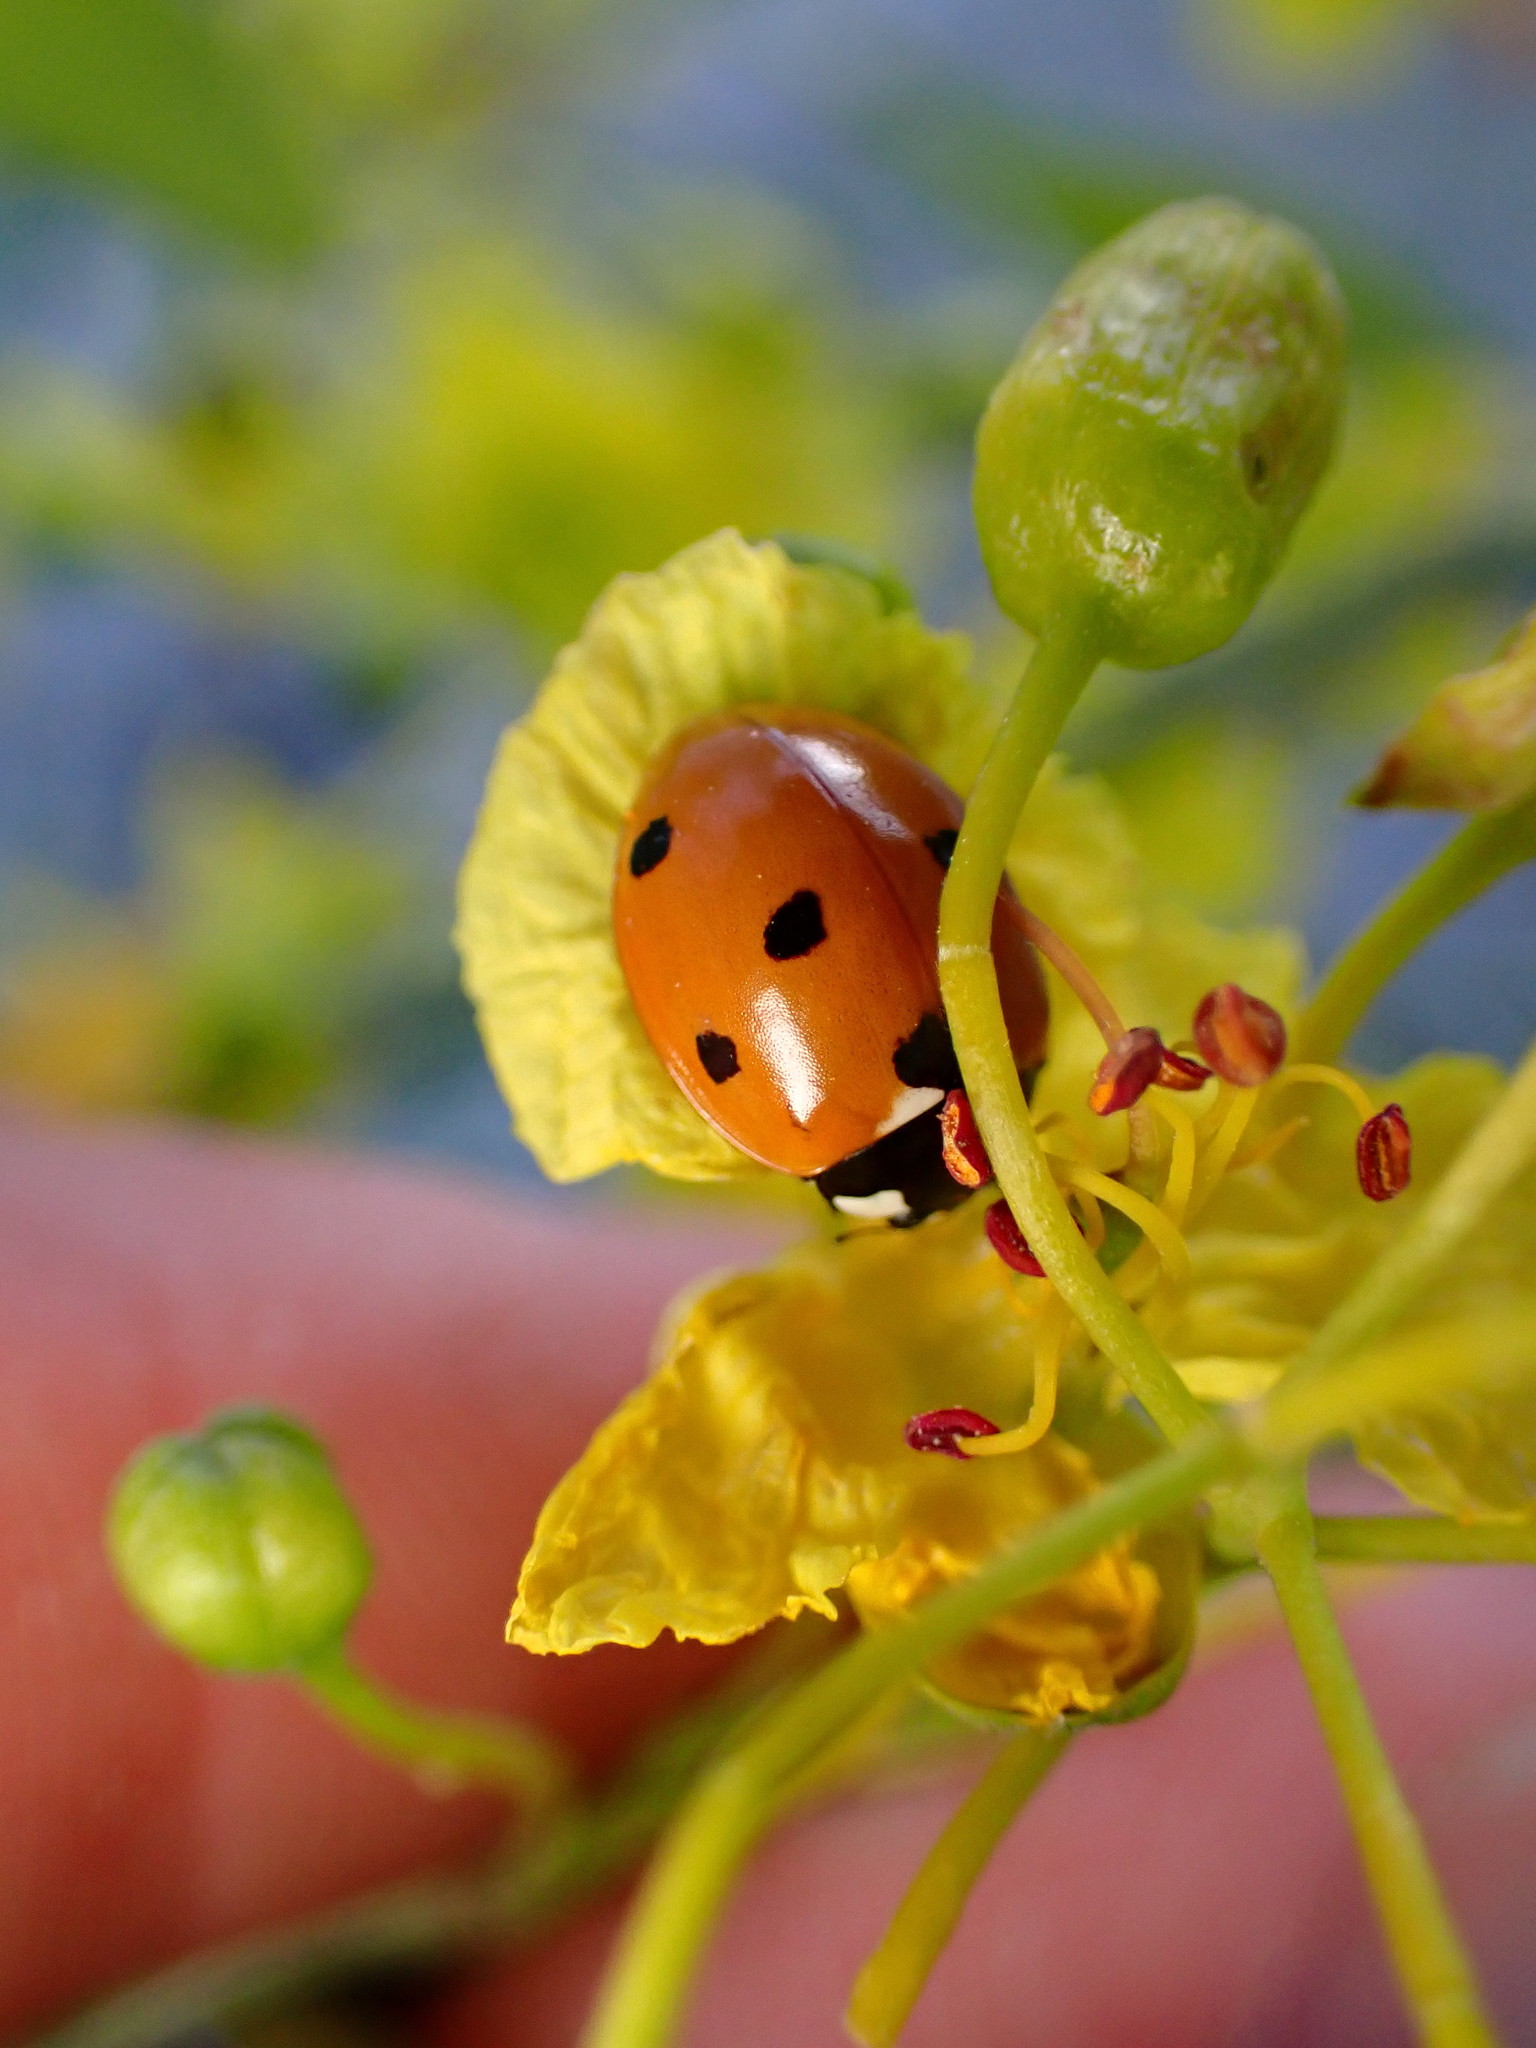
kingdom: Animalia
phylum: Arthropoda
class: Insecta
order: Coleoptera
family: Coccinellidae
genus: Coccinella
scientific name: Coccinella septempunctata
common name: Sevenspotted lady beetle
